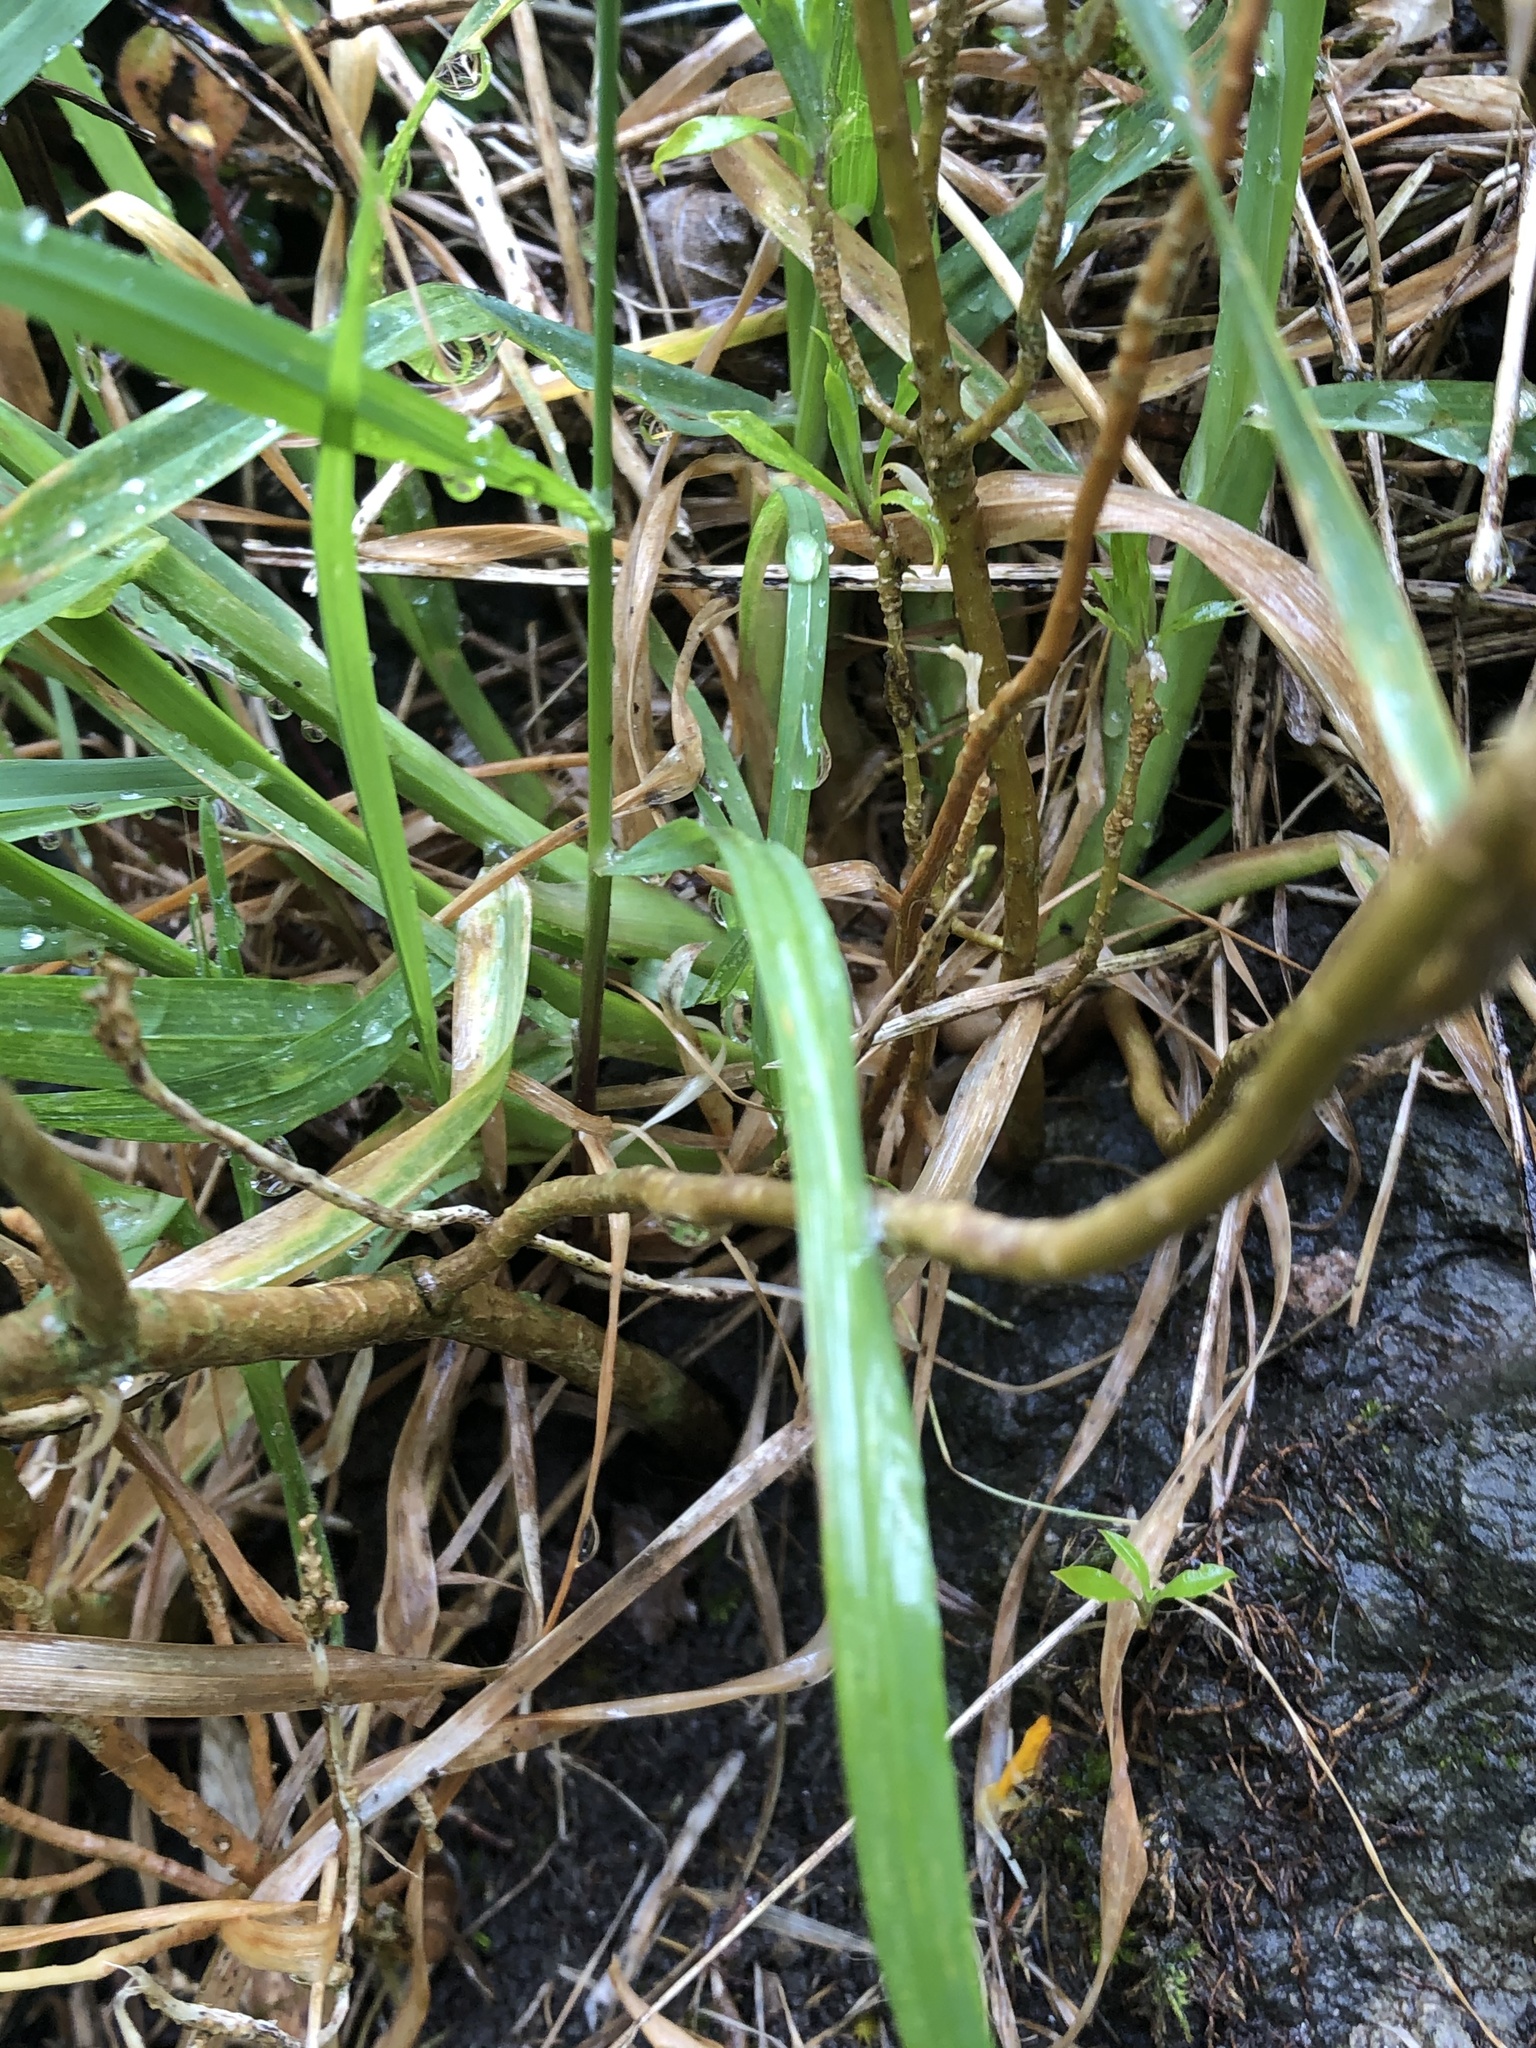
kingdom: Plantae
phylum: Tracheophyta
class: Magnoliopsida
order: Brassicales
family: Brassicaceae
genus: Erysimum
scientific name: Erysimum cheiri
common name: Wallflower
